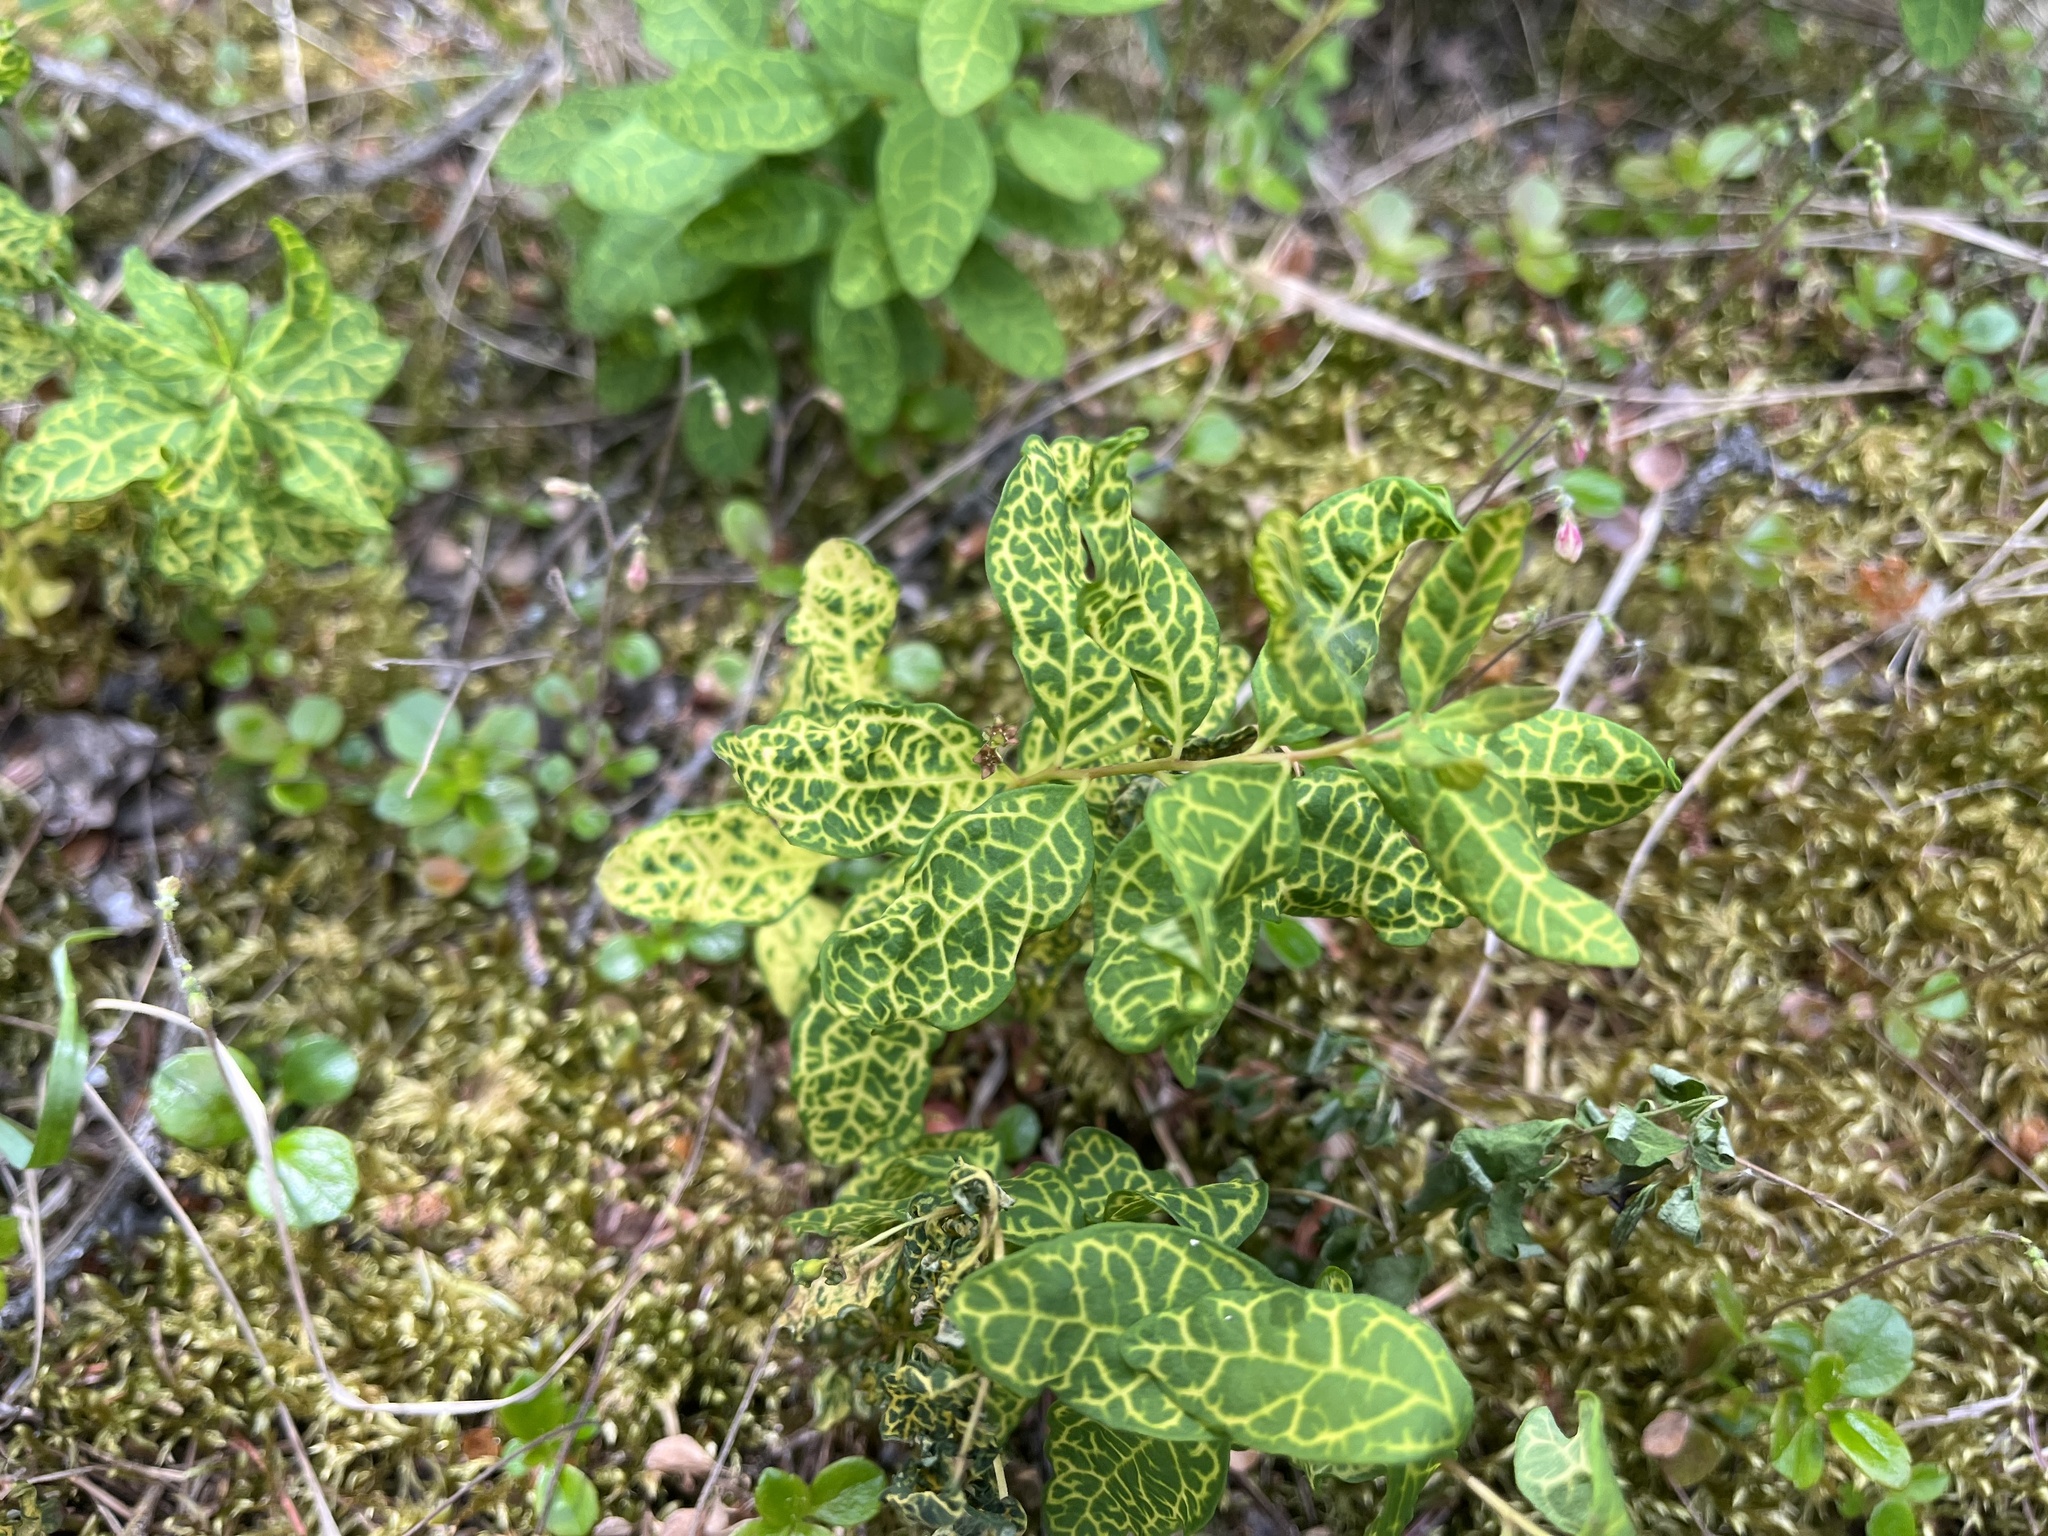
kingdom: Plantae
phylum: Tracheophyta
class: Magnoliopsida
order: Santalales
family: Comandraceae
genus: Geocaulon
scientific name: Geocaulon lividum
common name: Earthberry
